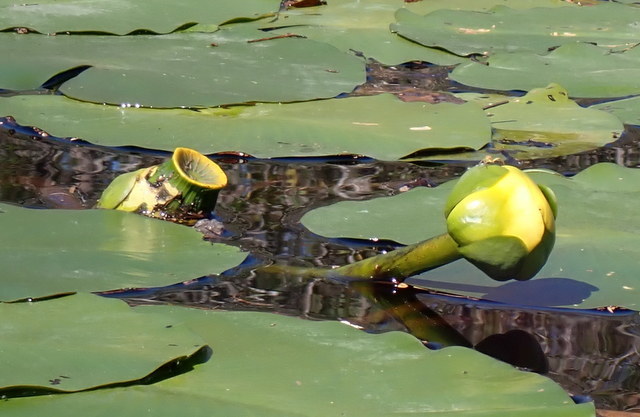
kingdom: Plantae
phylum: Tracheophyta
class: Magnoliopsida
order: Nymphaeales
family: Nymphaeaceae
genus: Nuphar
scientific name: Nuphar advena
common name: Spatter-dock
